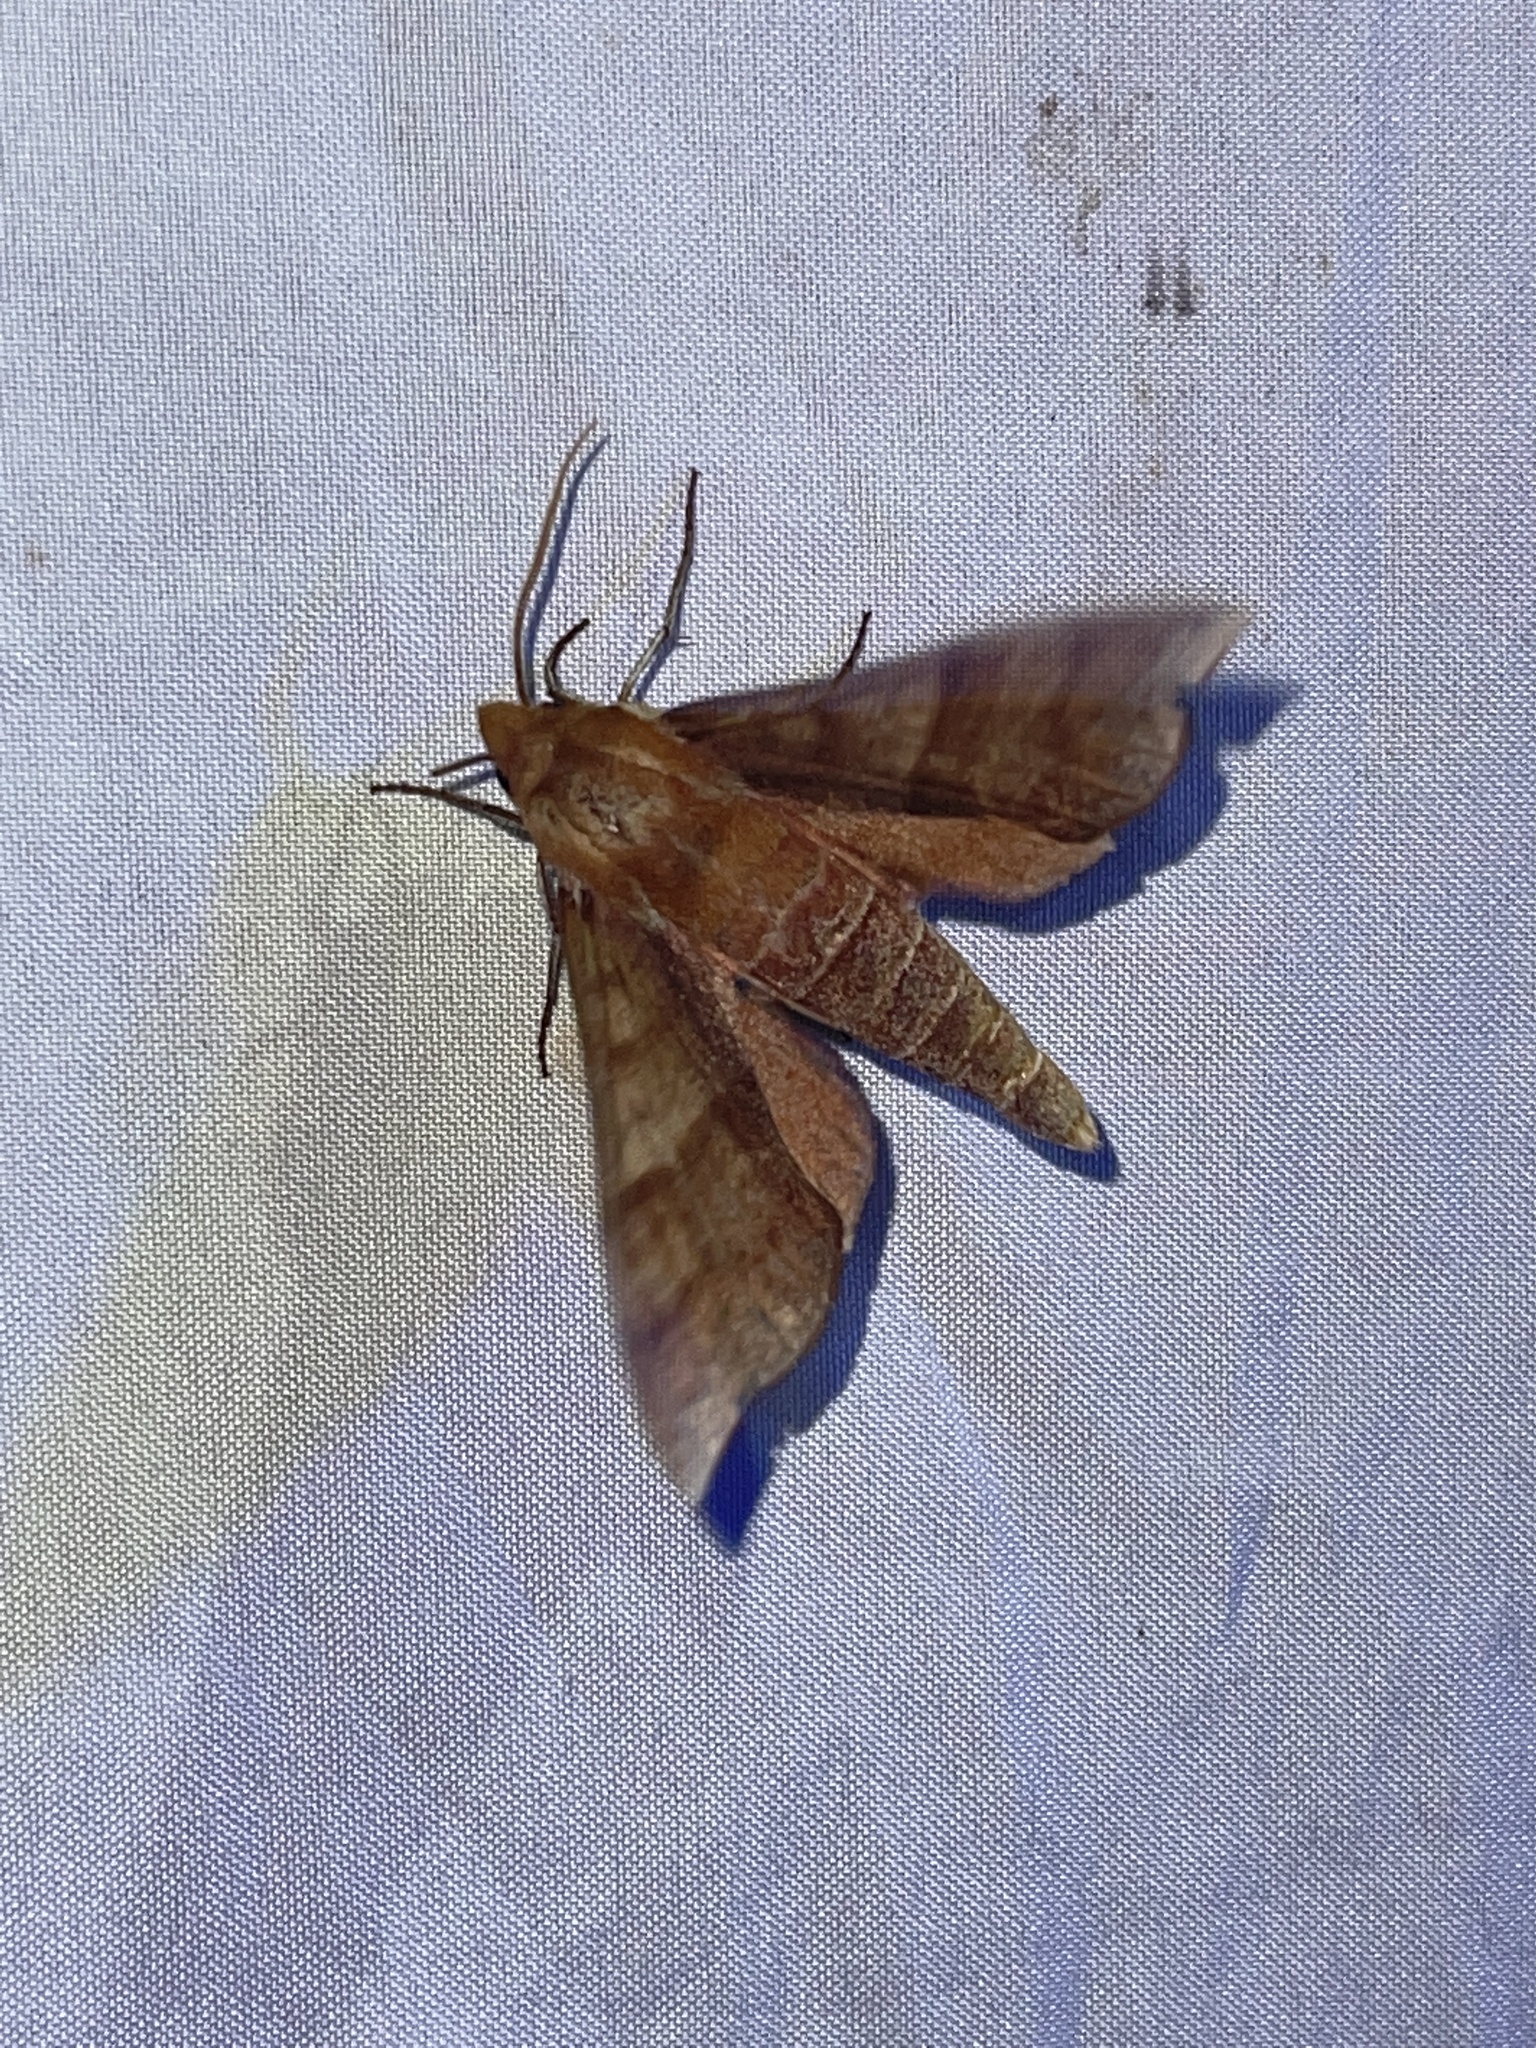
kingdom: Animalia
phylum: Arthropoda
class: Insecta
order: Lepidoptera
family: Sphingidae
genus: Darapsa
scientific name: Darapsa choerilus
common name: Azalea sphinx
